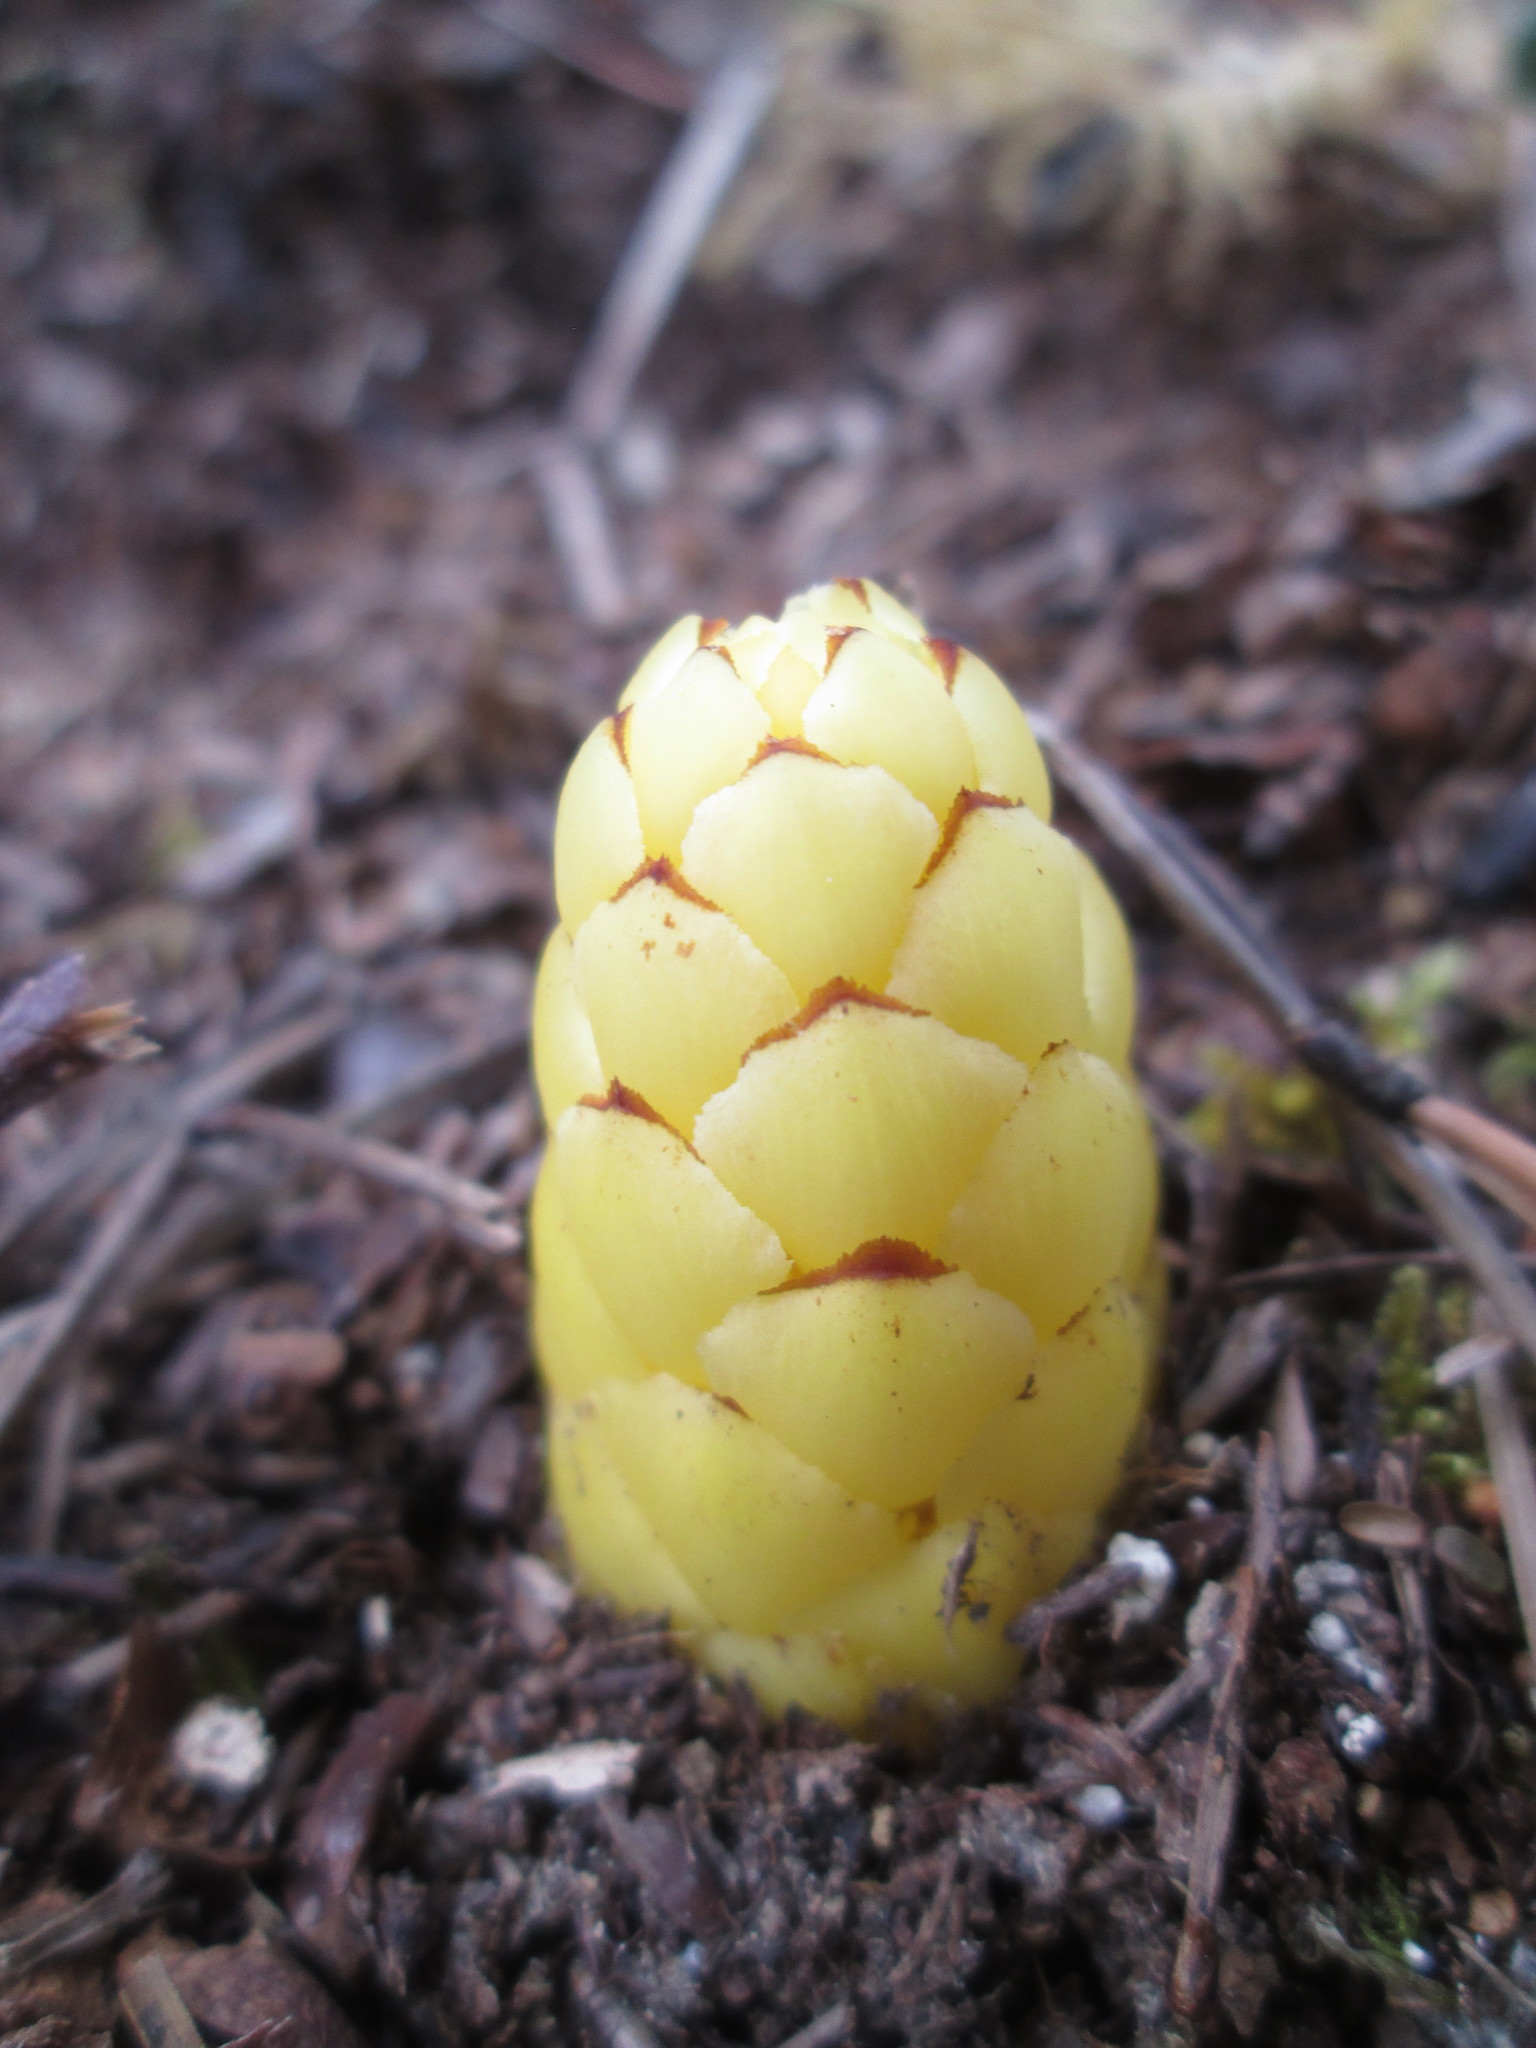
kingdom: Plantae
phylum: Tracheophyta
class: Magnoliopsida
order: Lamiales
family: Orobanchaceae
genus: Kopsiopsis
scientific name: Kopsiopsis hookeri
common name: Hooker's groundcone
